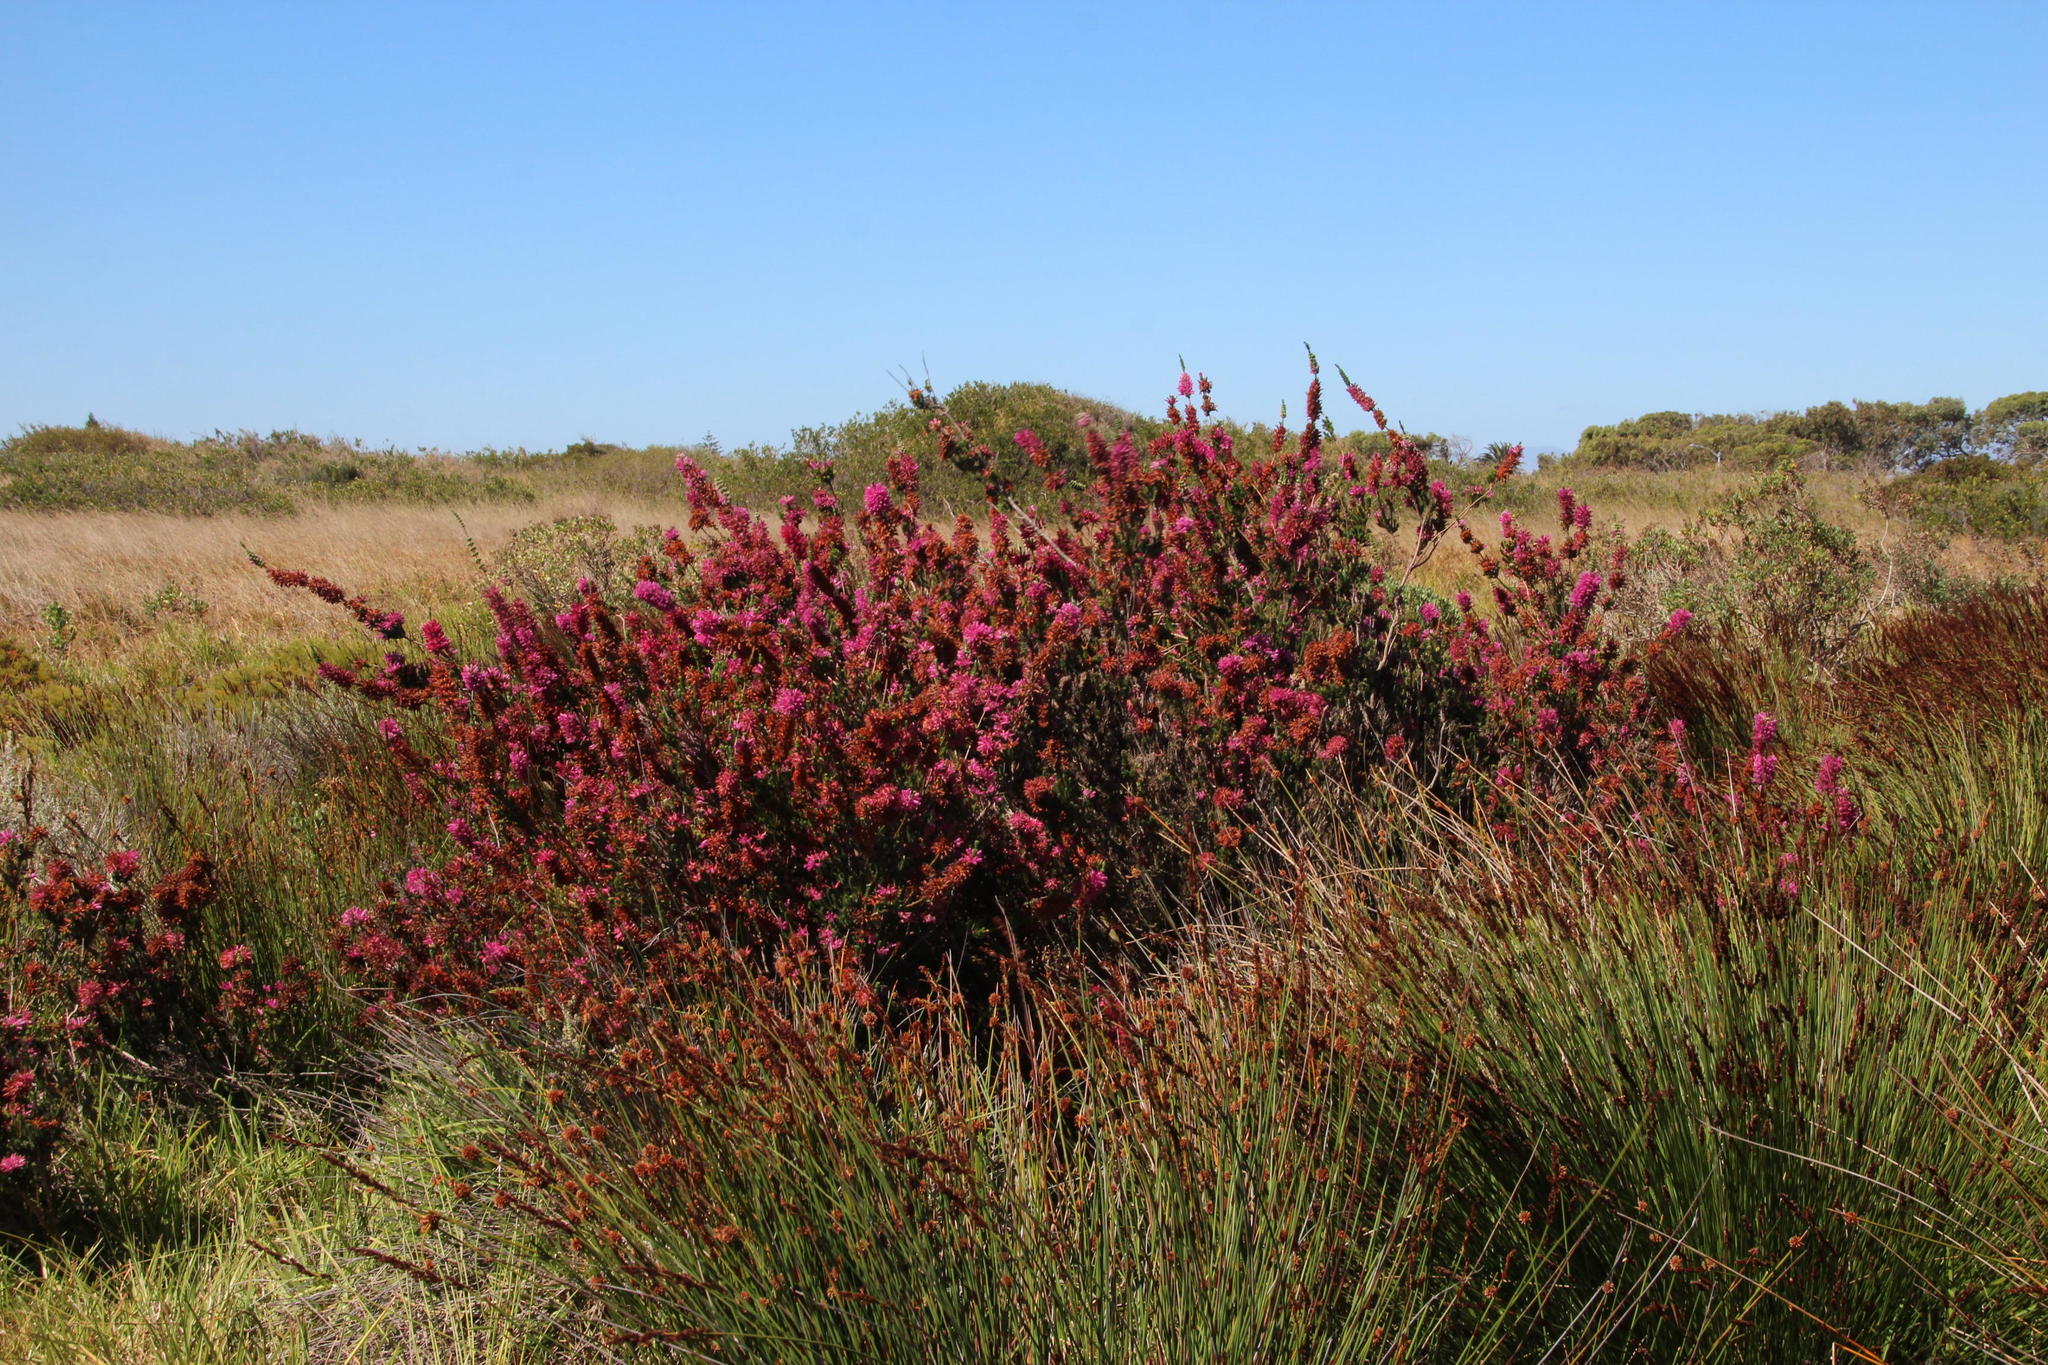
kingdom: Plantae
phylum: Tracheophyta
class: Magnoliopsida
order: Ericales
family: Ericaceae
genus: Erica
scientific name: Erica verticillata
